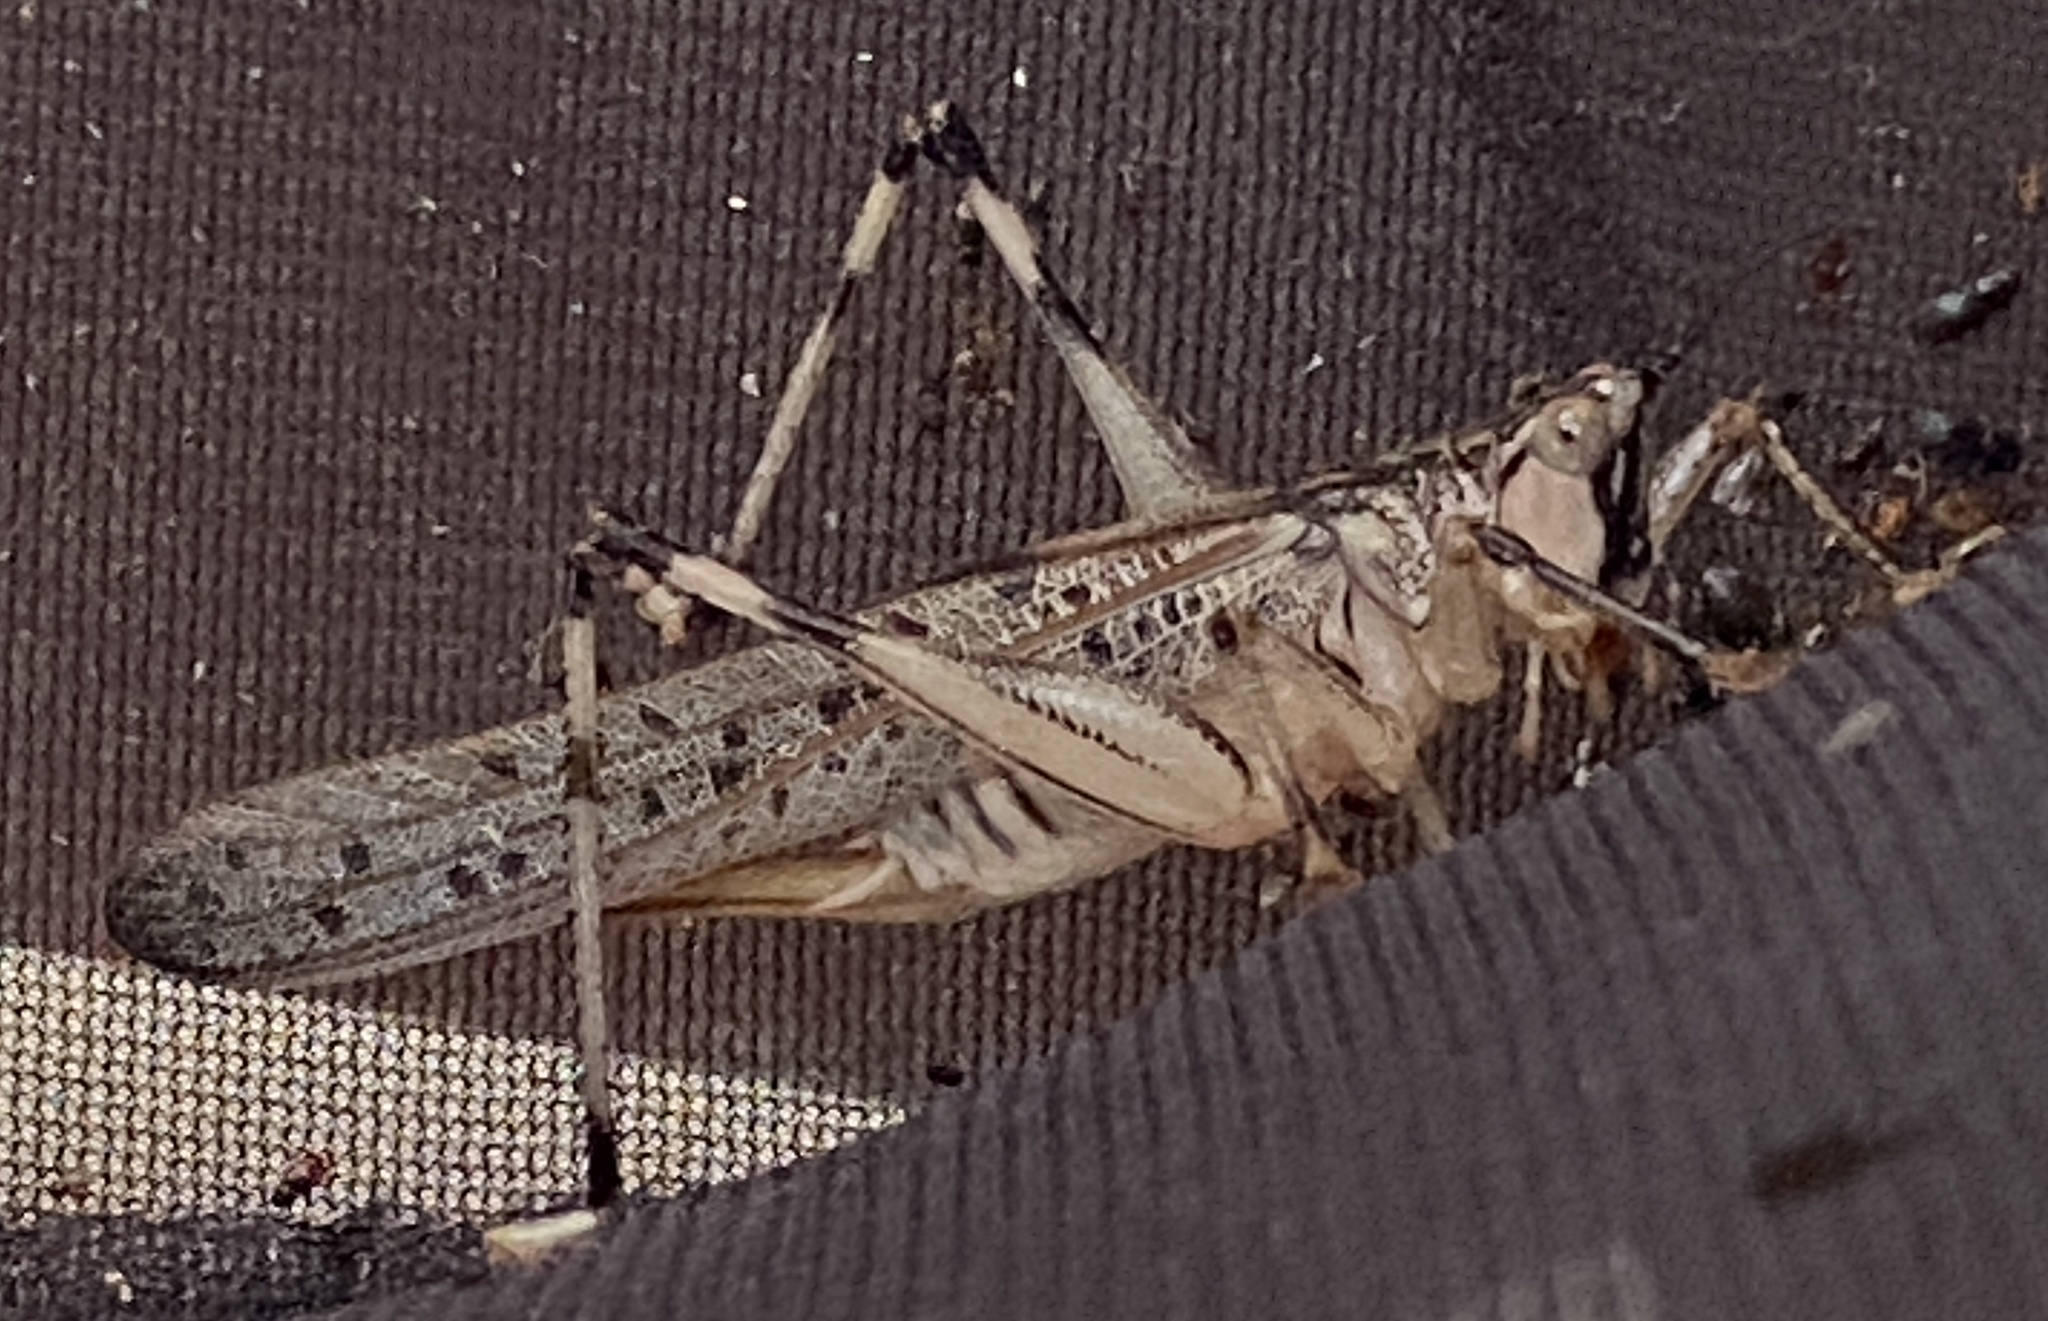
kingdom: Animalia
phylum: Arthropoda
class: Insecta
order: Orthoptera
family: Tettigoniidae
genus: Nicsara
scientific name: Nicsara trigonalis
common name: Tropical nicsara
